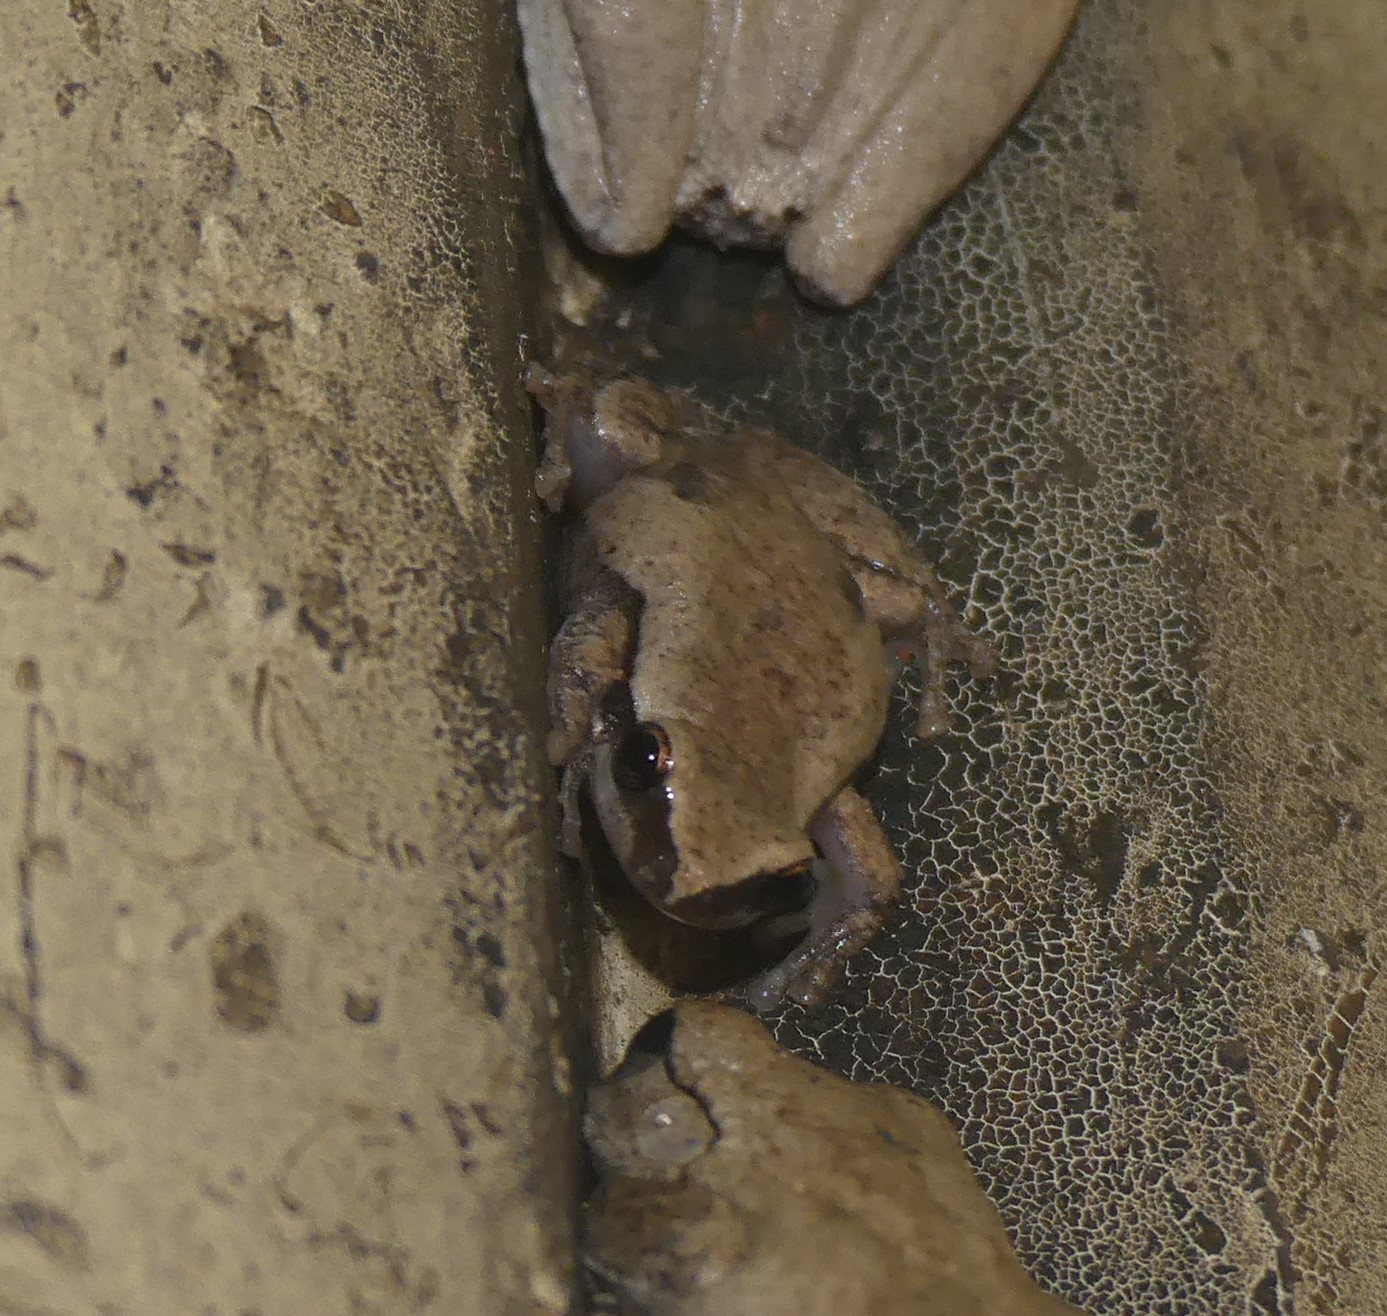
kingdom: Animalia
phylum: Chordata
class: Amphibia
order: Anura
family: Pelodryadidae
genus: Litoria
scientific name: Litoria rubella
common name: Desert tree frog
